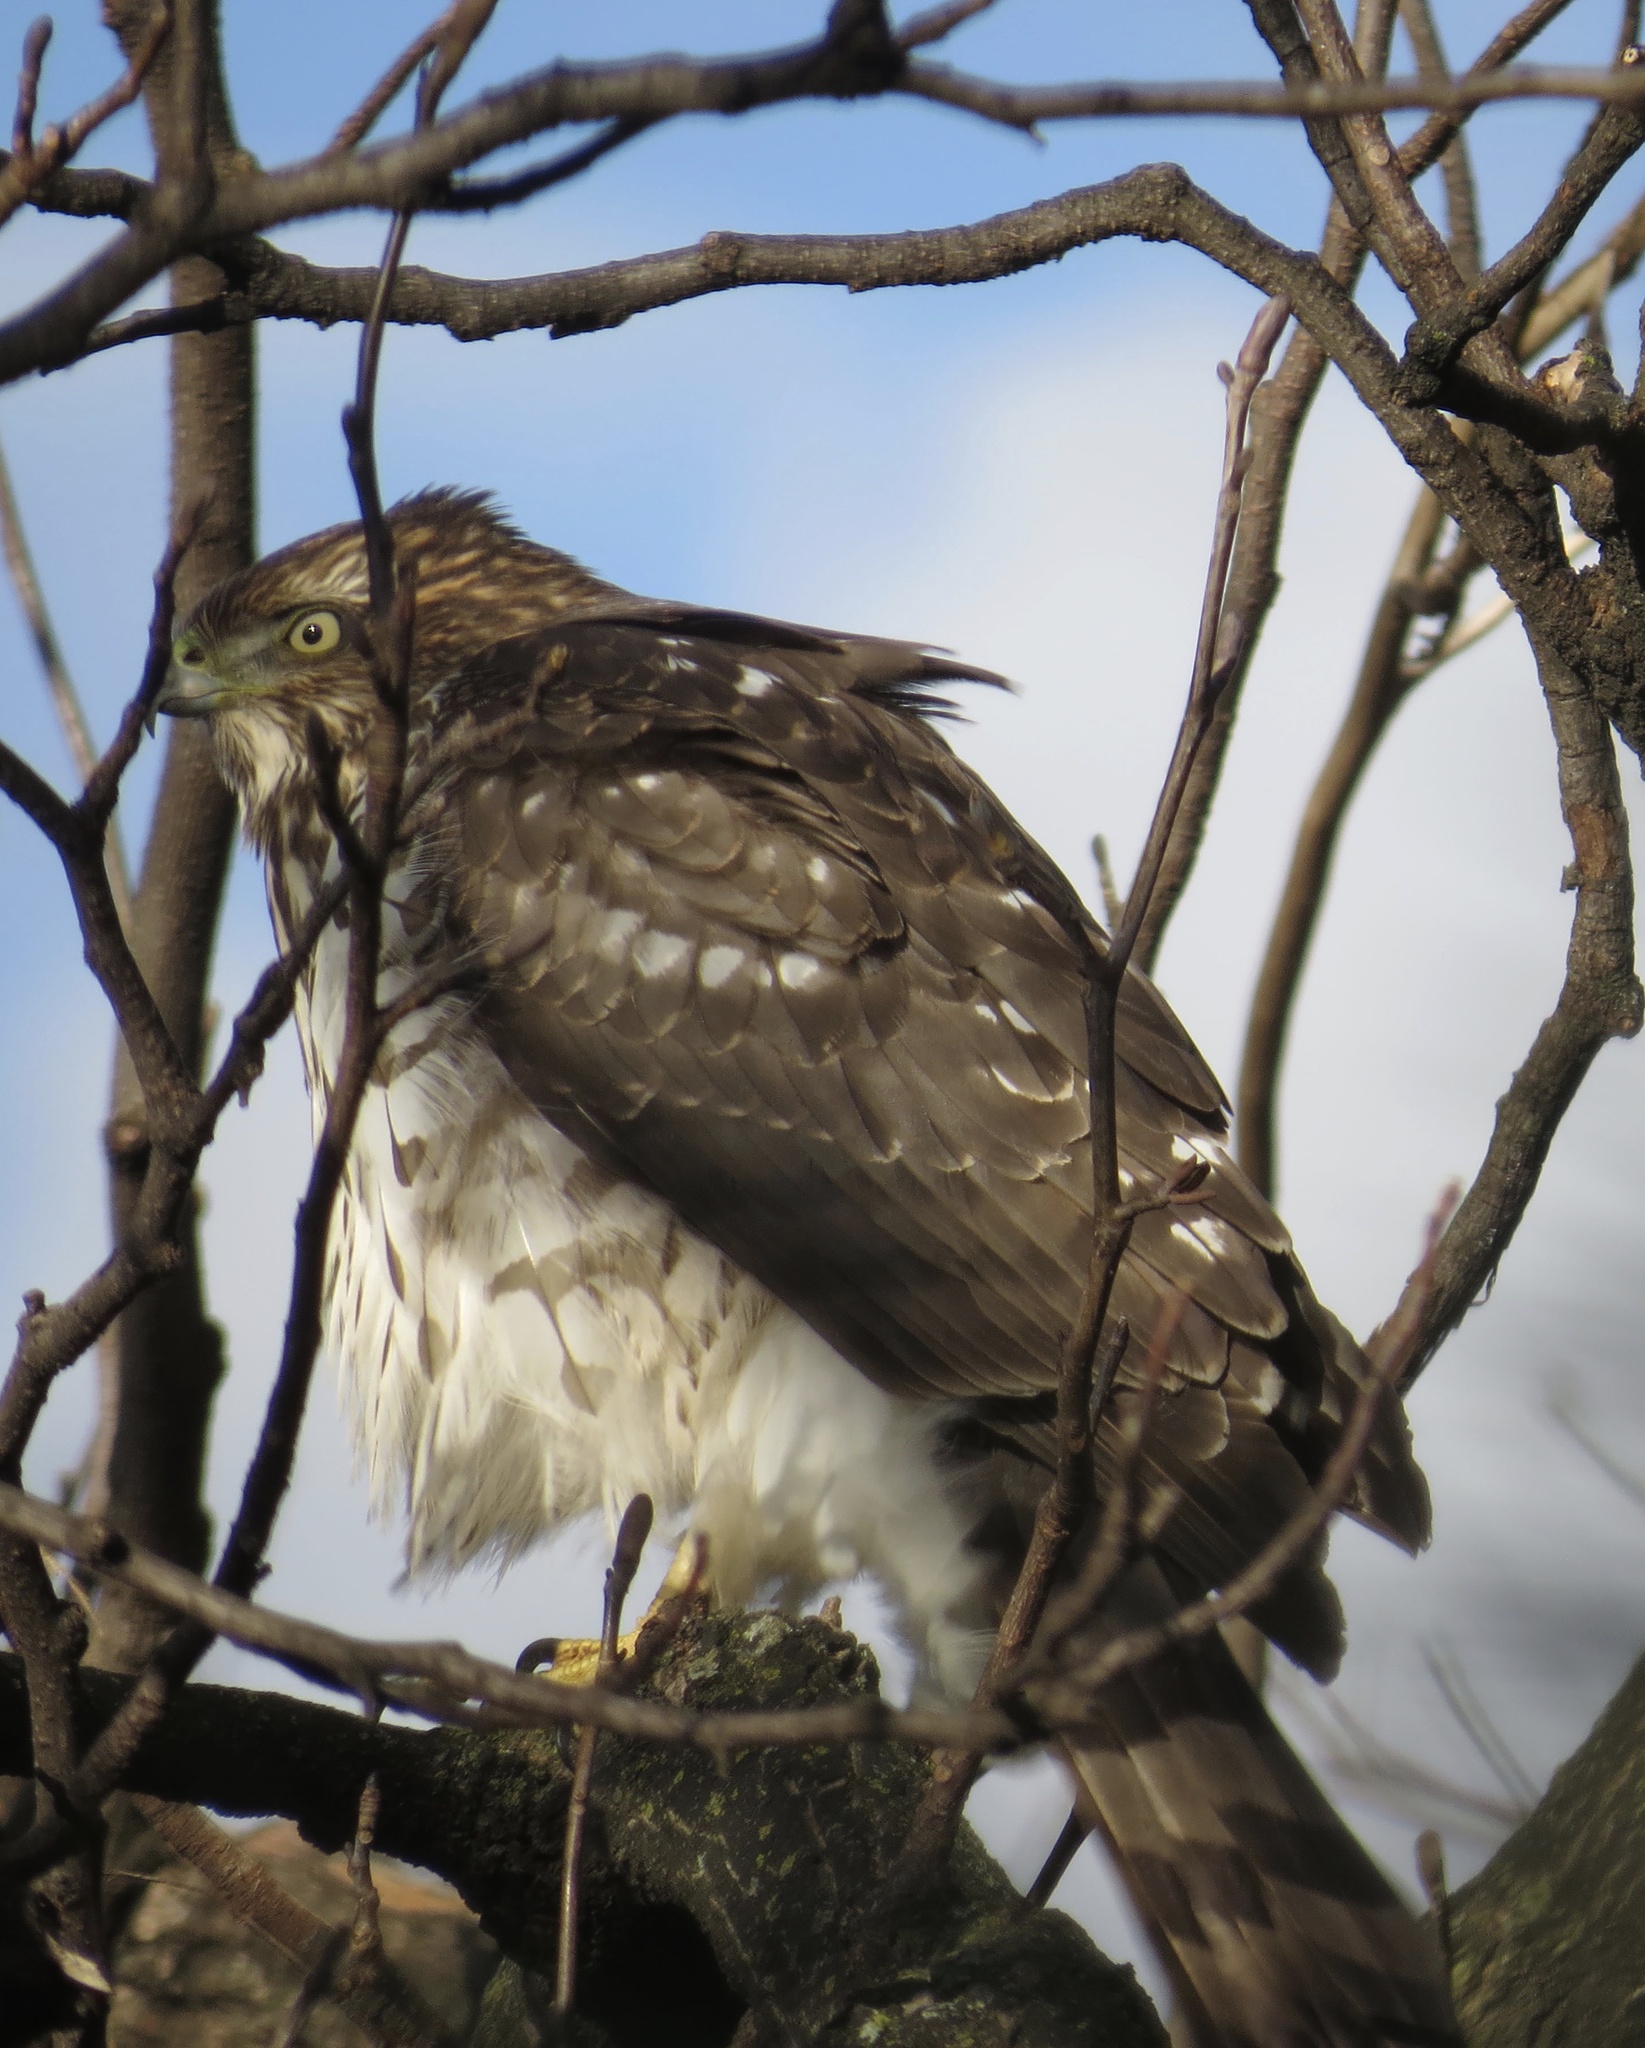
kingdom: Animalia
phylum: Chordata
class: Aves
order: Accipitriformes
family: Accipitridae
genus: Accipiter
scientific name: Accipiter cooperii
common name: Cooper's hawk
